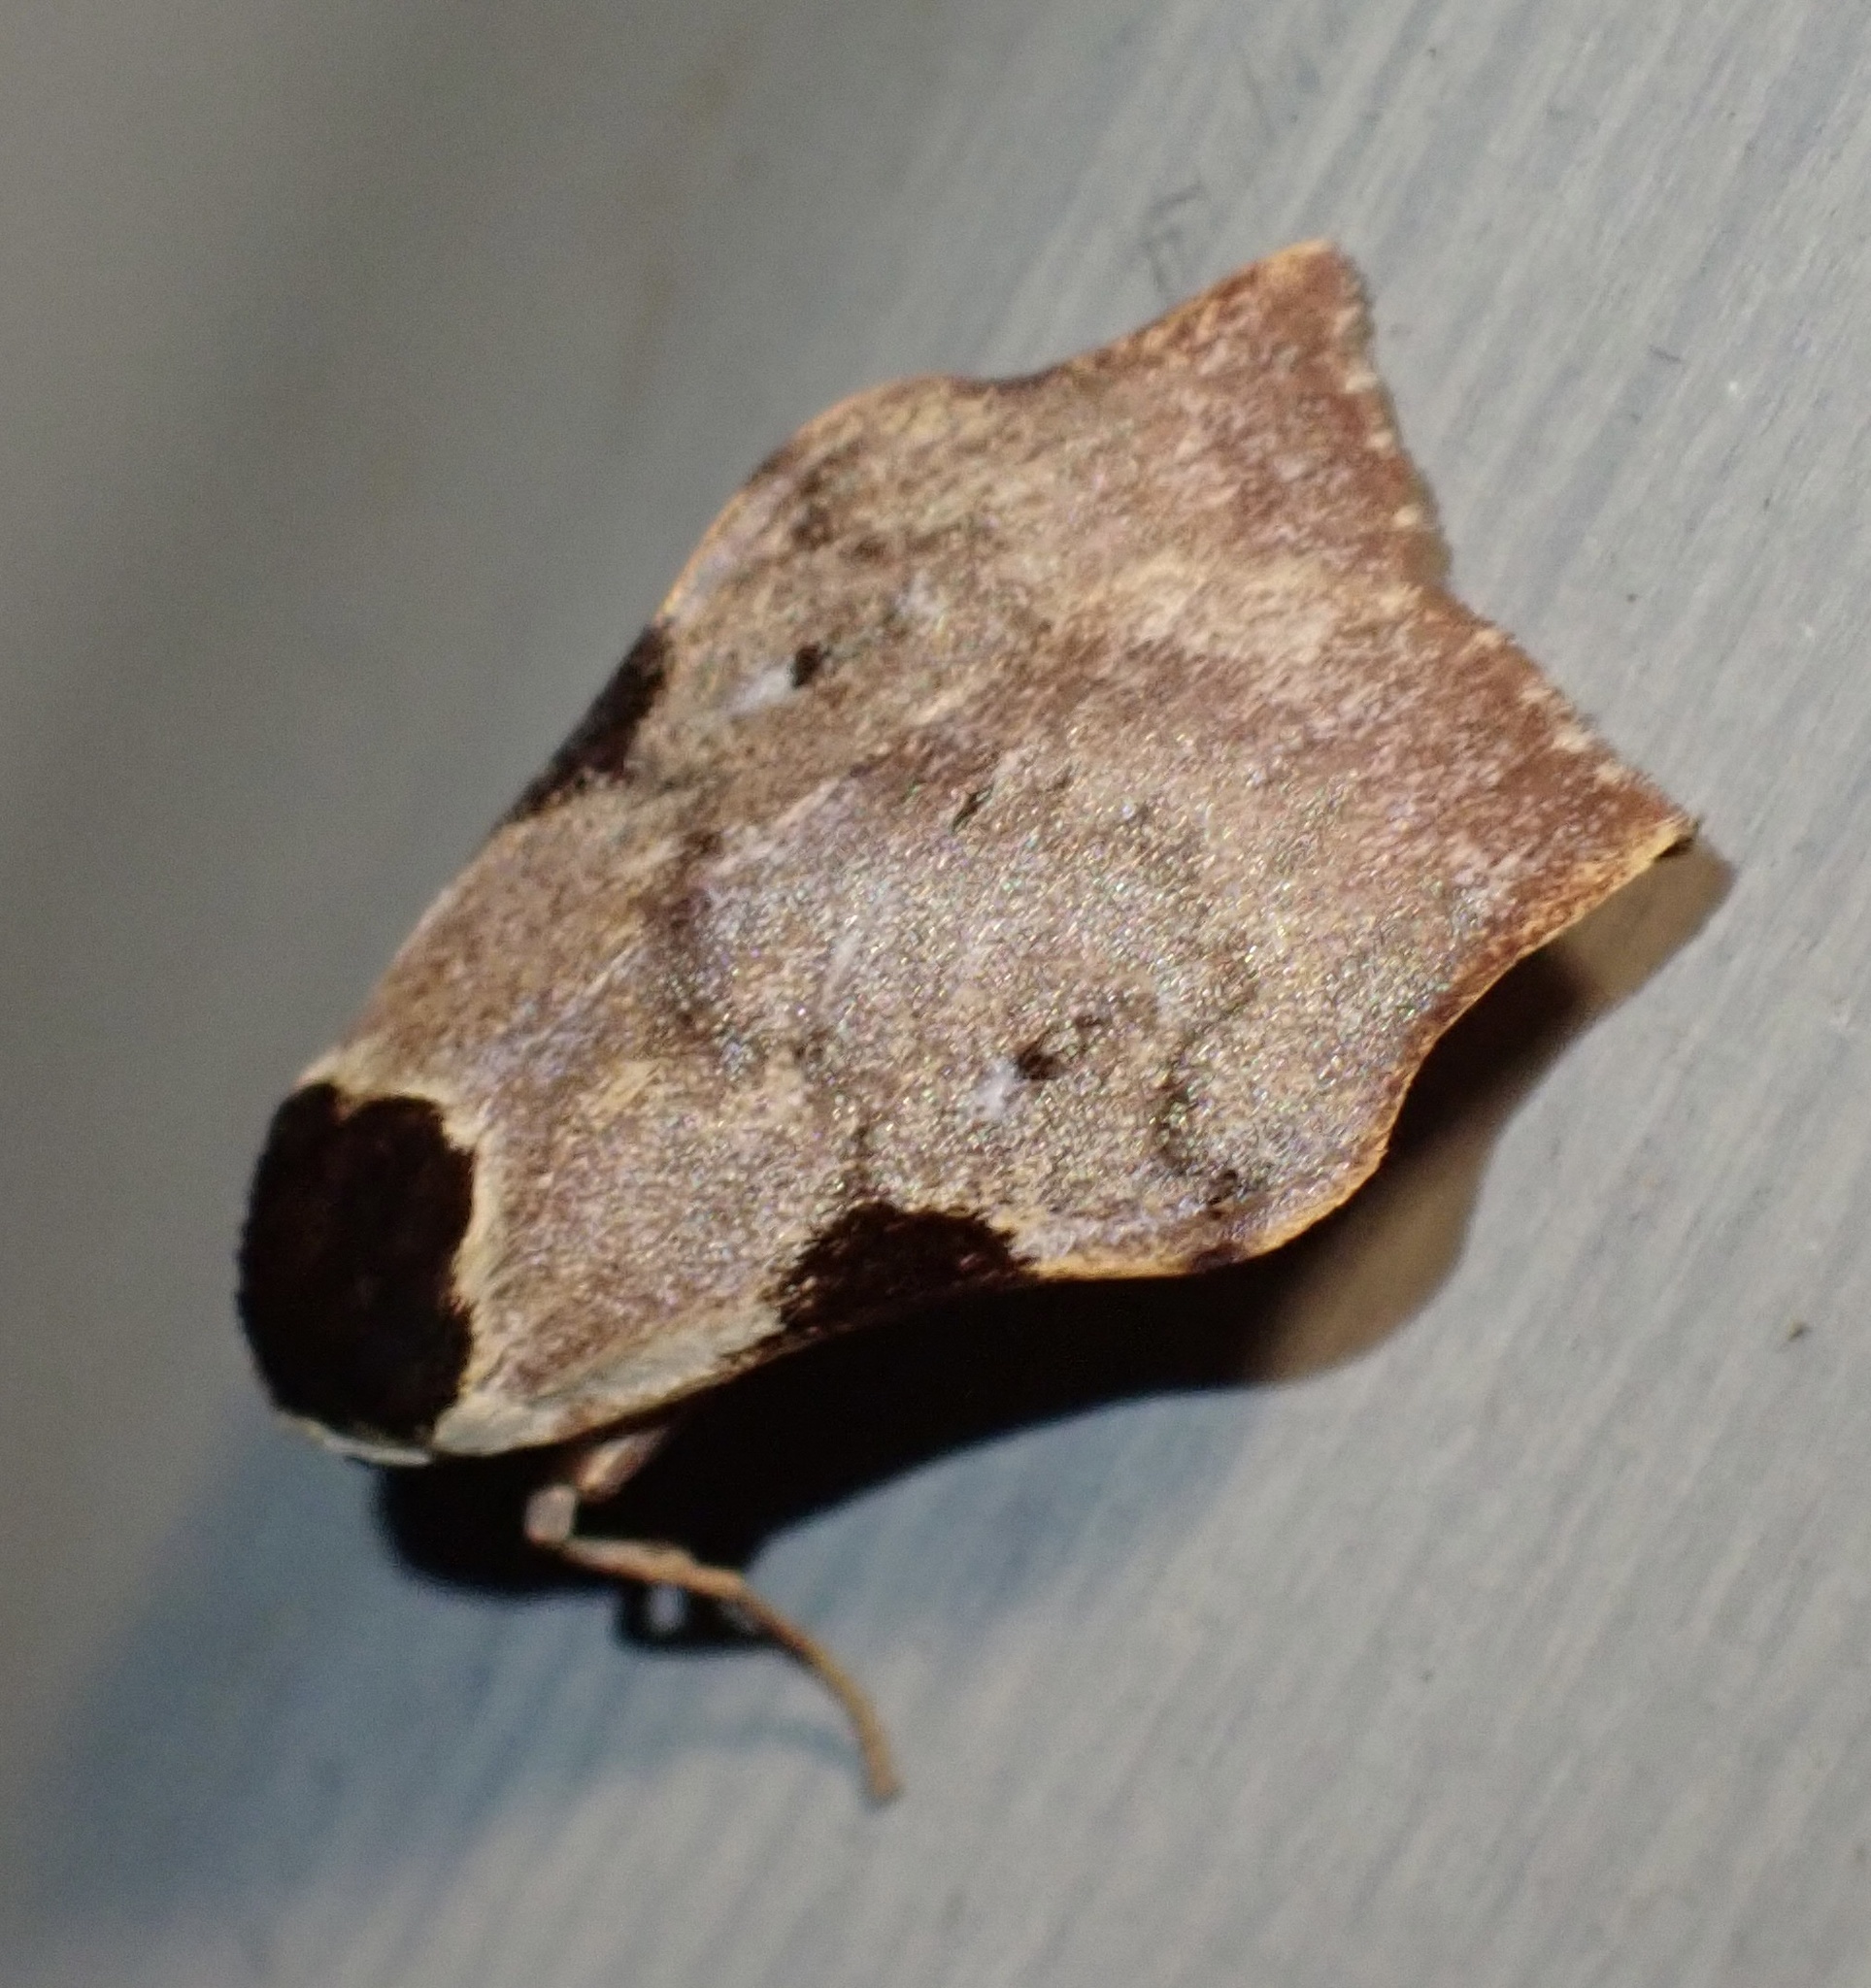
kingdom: Animalia
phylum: Arthropoda
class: Insecta
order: Lepidoptera
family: Erebidae
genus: Macaduma
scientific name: Macaduma costimacula
